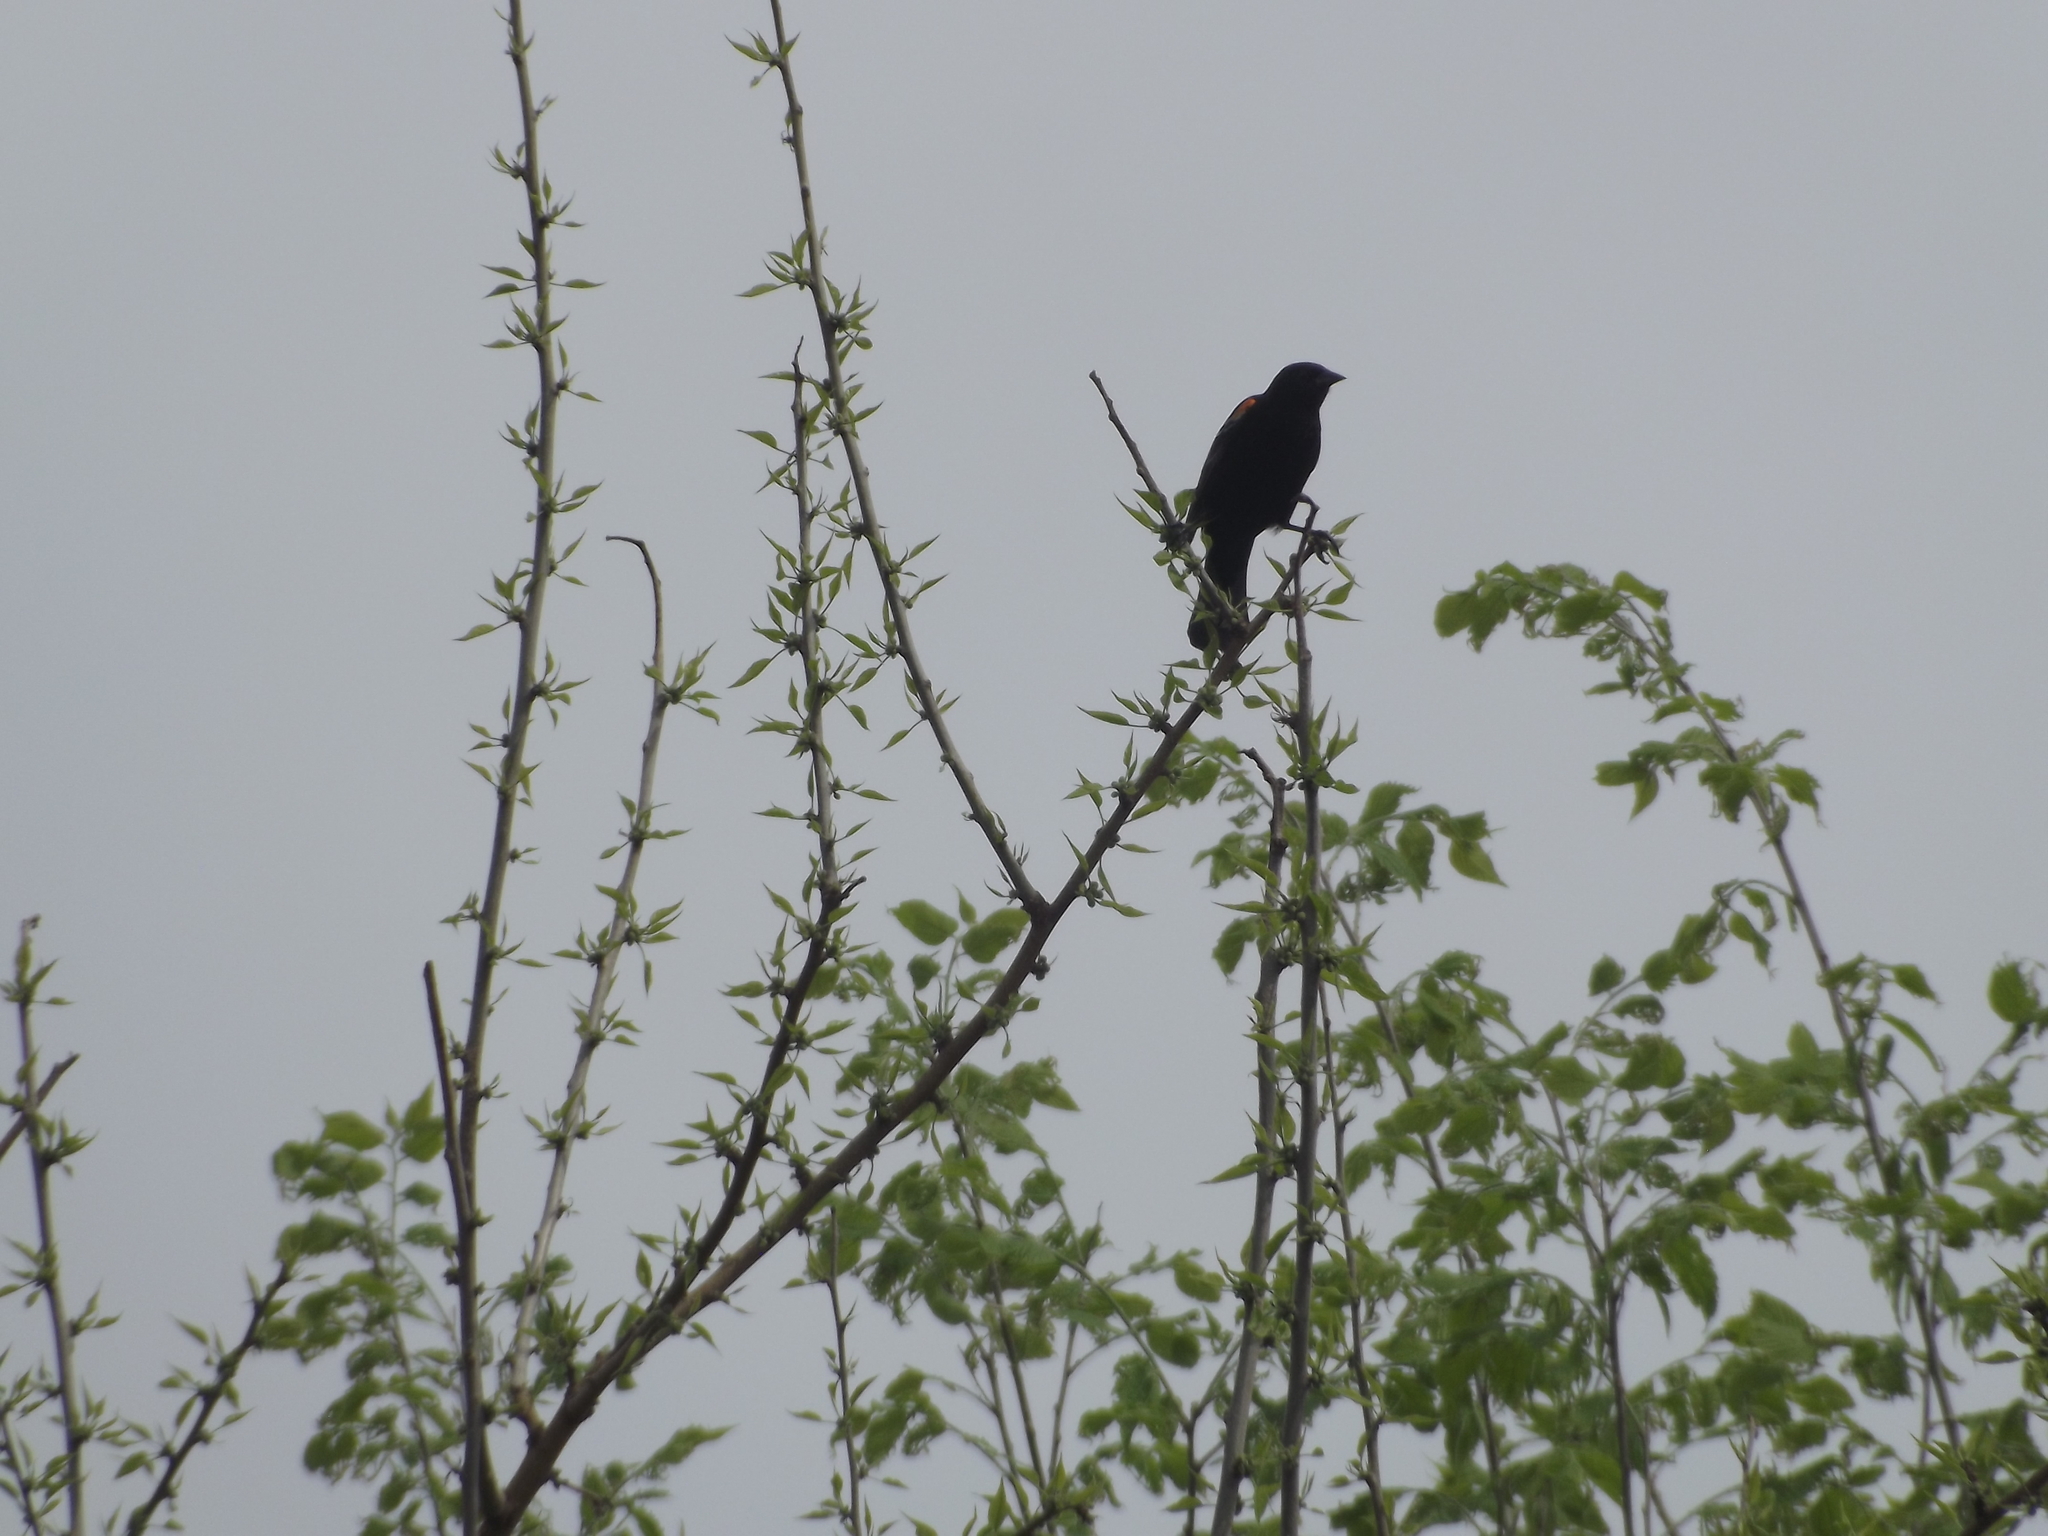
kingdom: Animalia
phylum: Chordata
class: Aves
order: Passeriformes
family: Icteridae
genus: Agelaius
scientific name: Agelaius phoeniceus
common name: Red-winged blackbird
